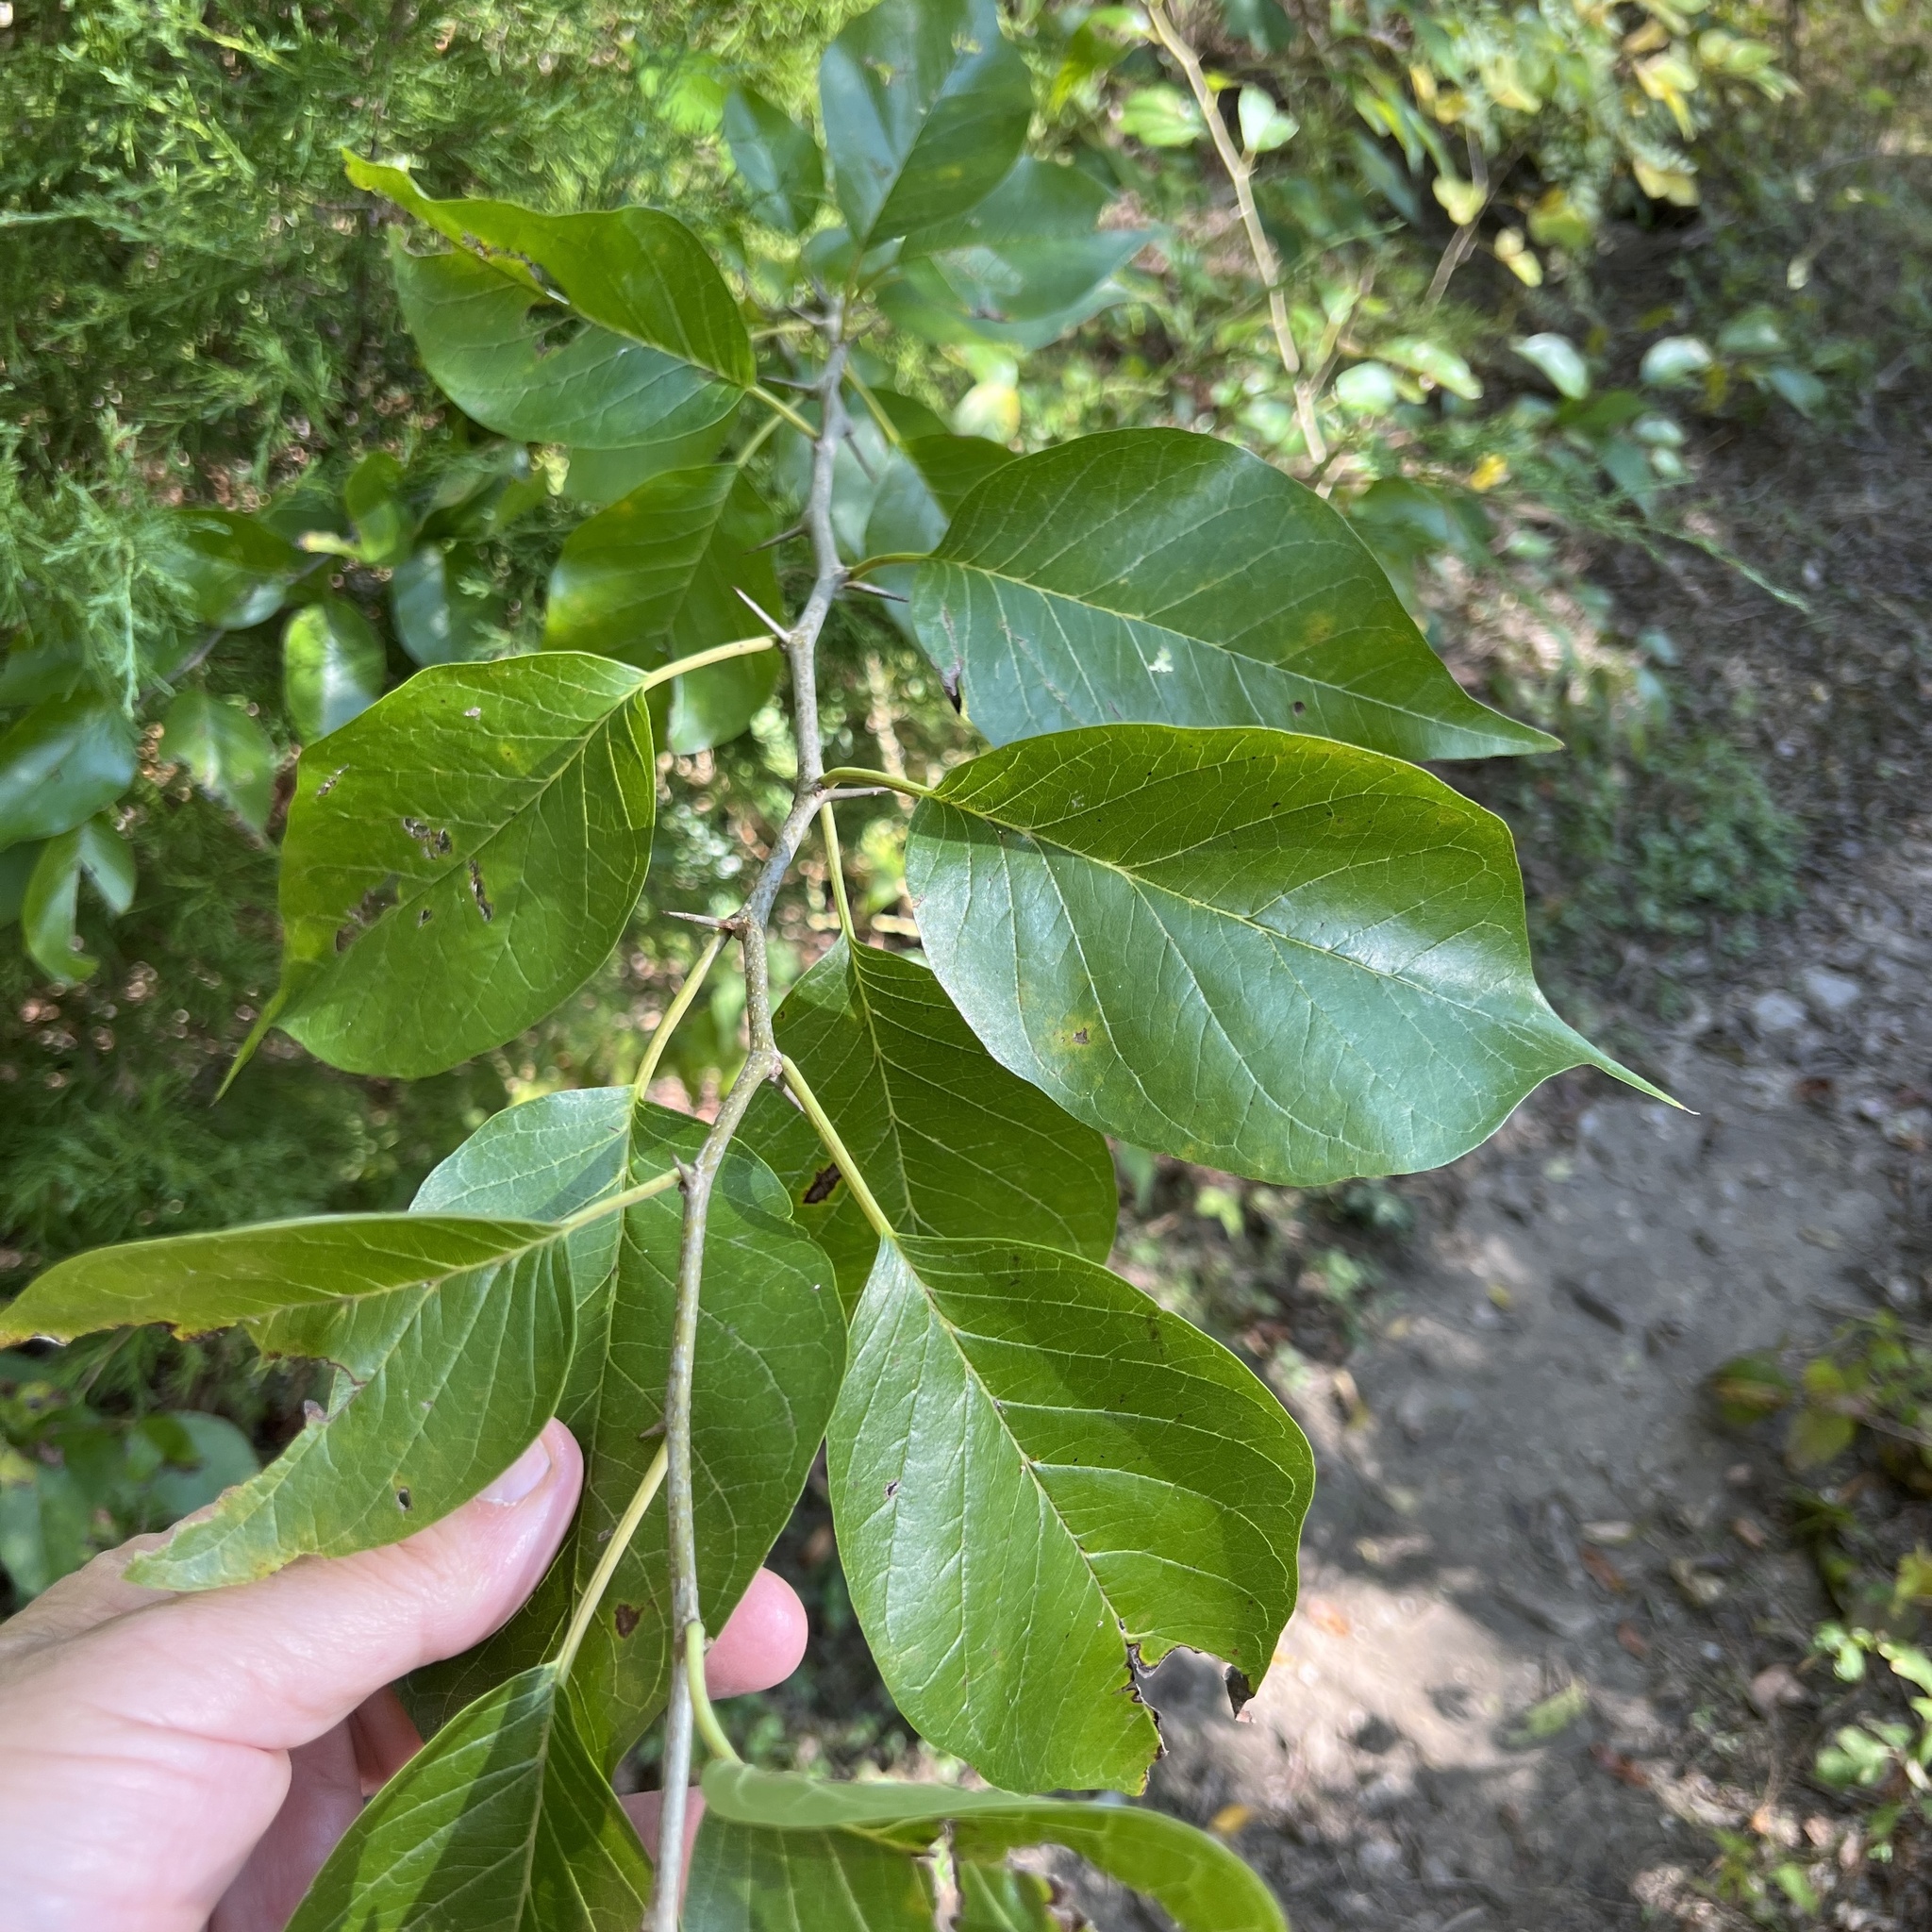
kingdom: Plantae
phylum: Tracheophyta
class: Magnoliopsida
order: Rosales
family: Moraceae
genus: Maclura
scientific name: Maclura pomifera
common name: Osage-orange
